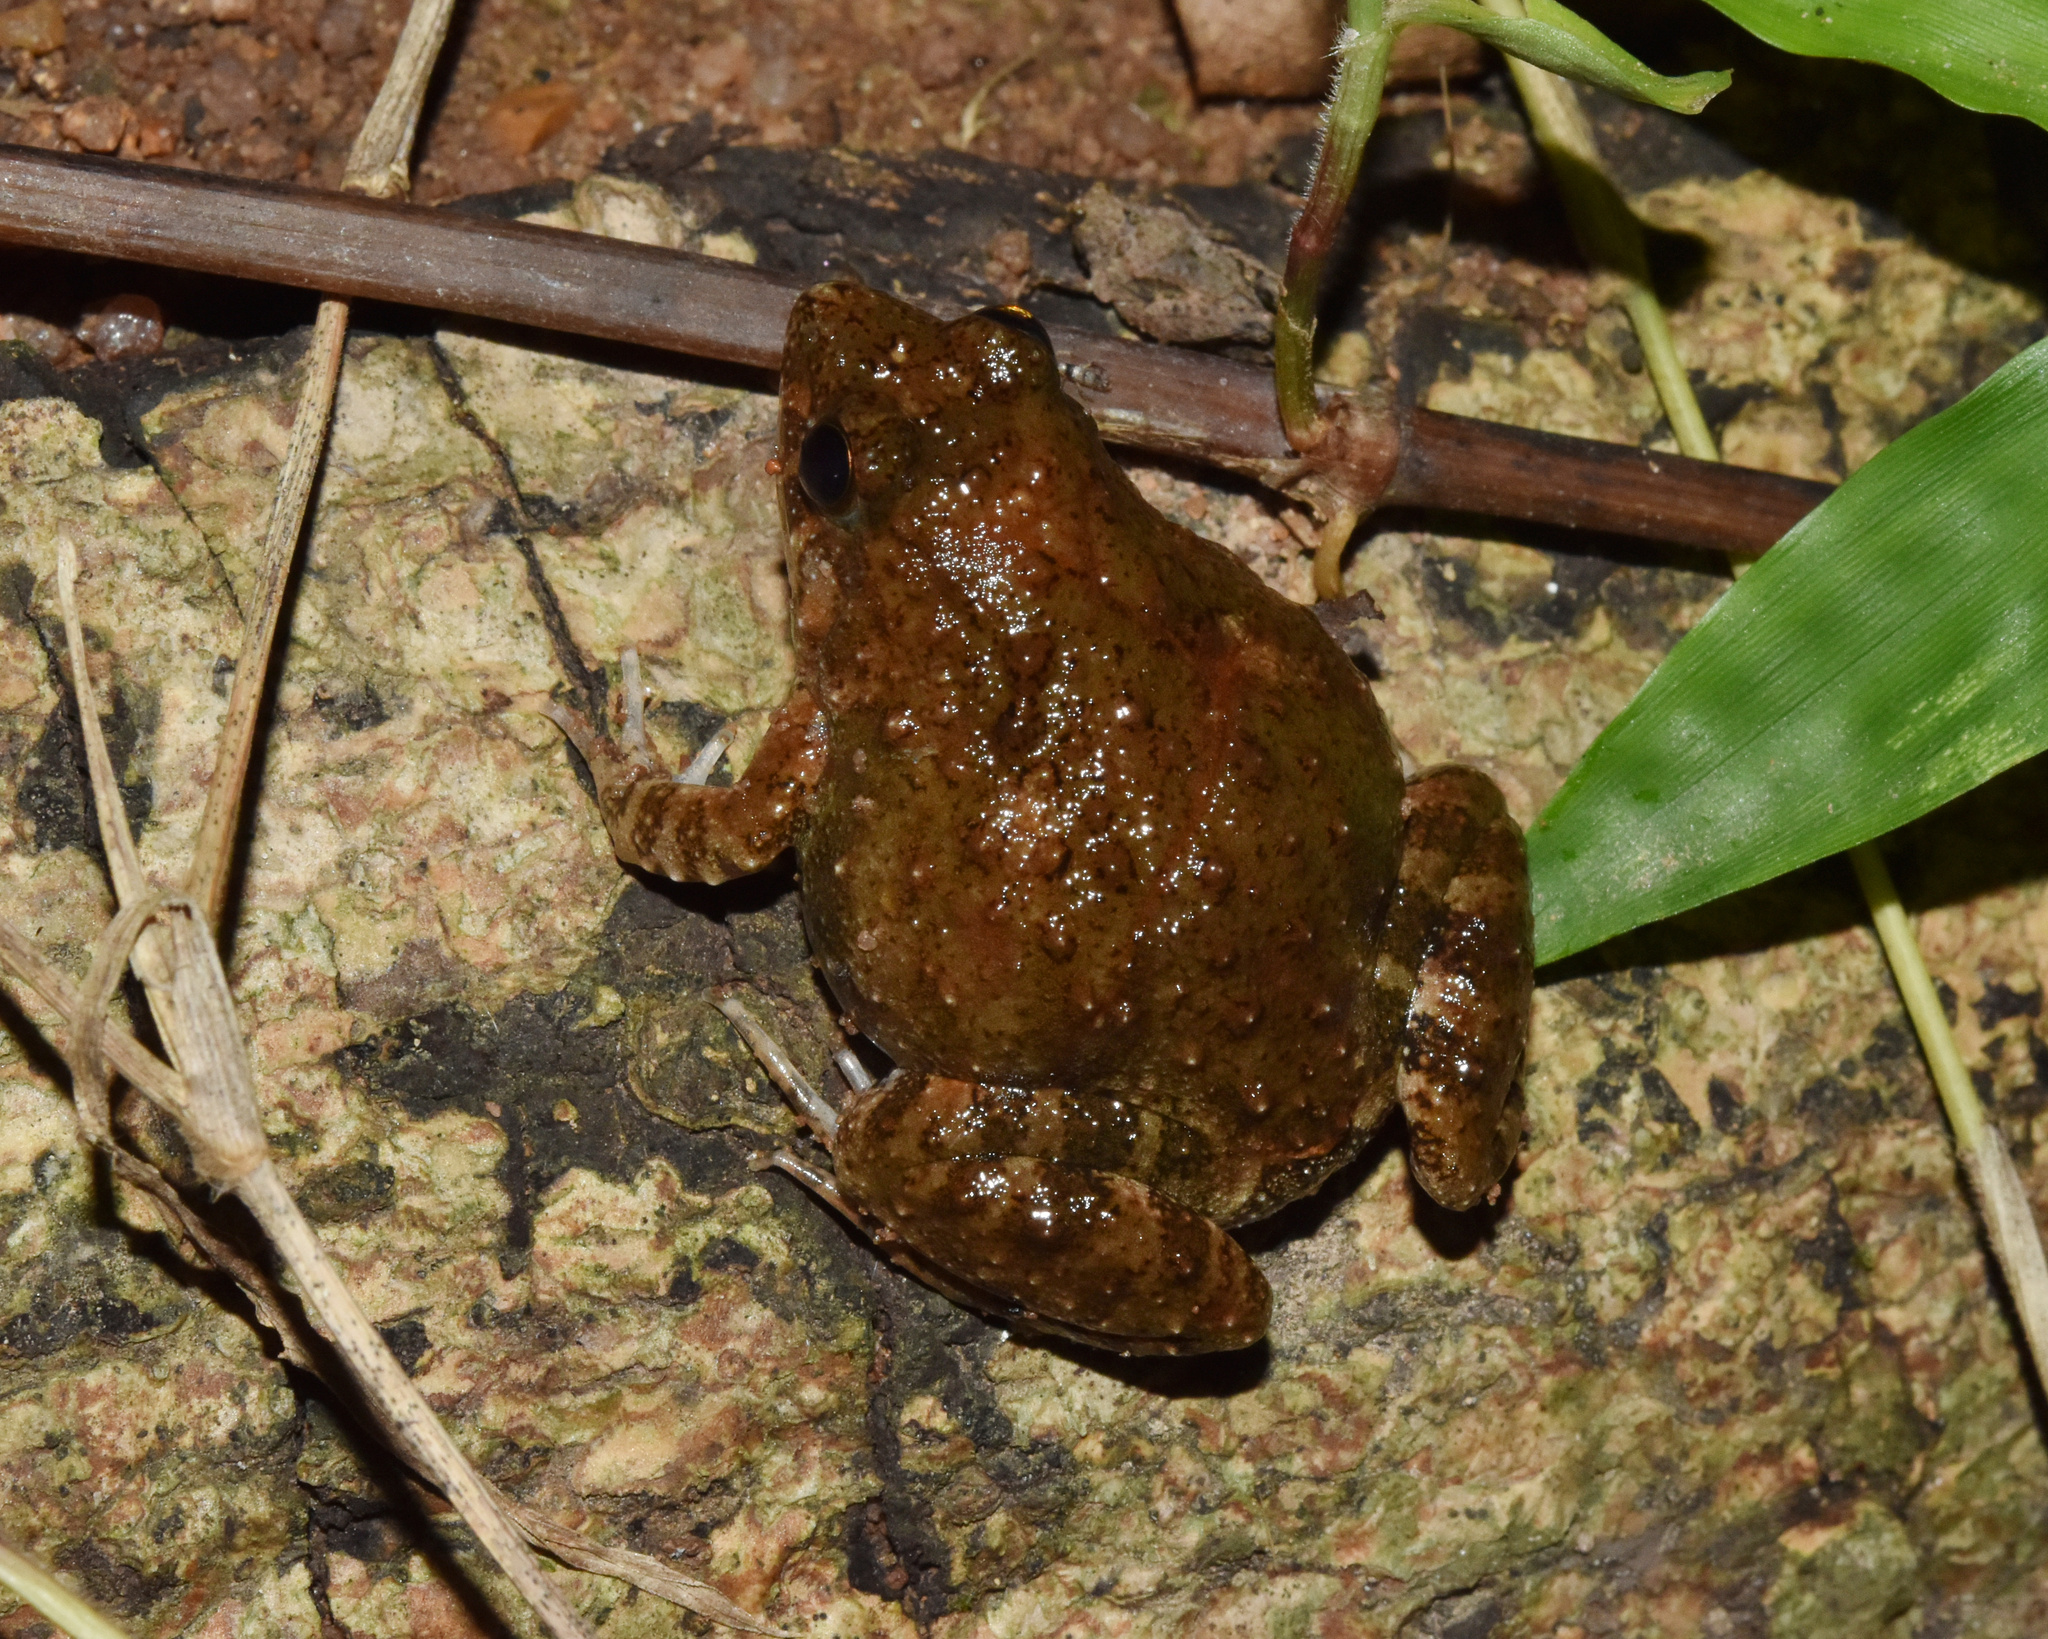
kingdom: Animalia
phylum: Chordata
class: Amphibia
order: Anura
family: Phrynobatrachidae
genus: Phrynobatrachus
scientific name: Phrynobatrachus natalensis
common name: Snoring puddle frog
